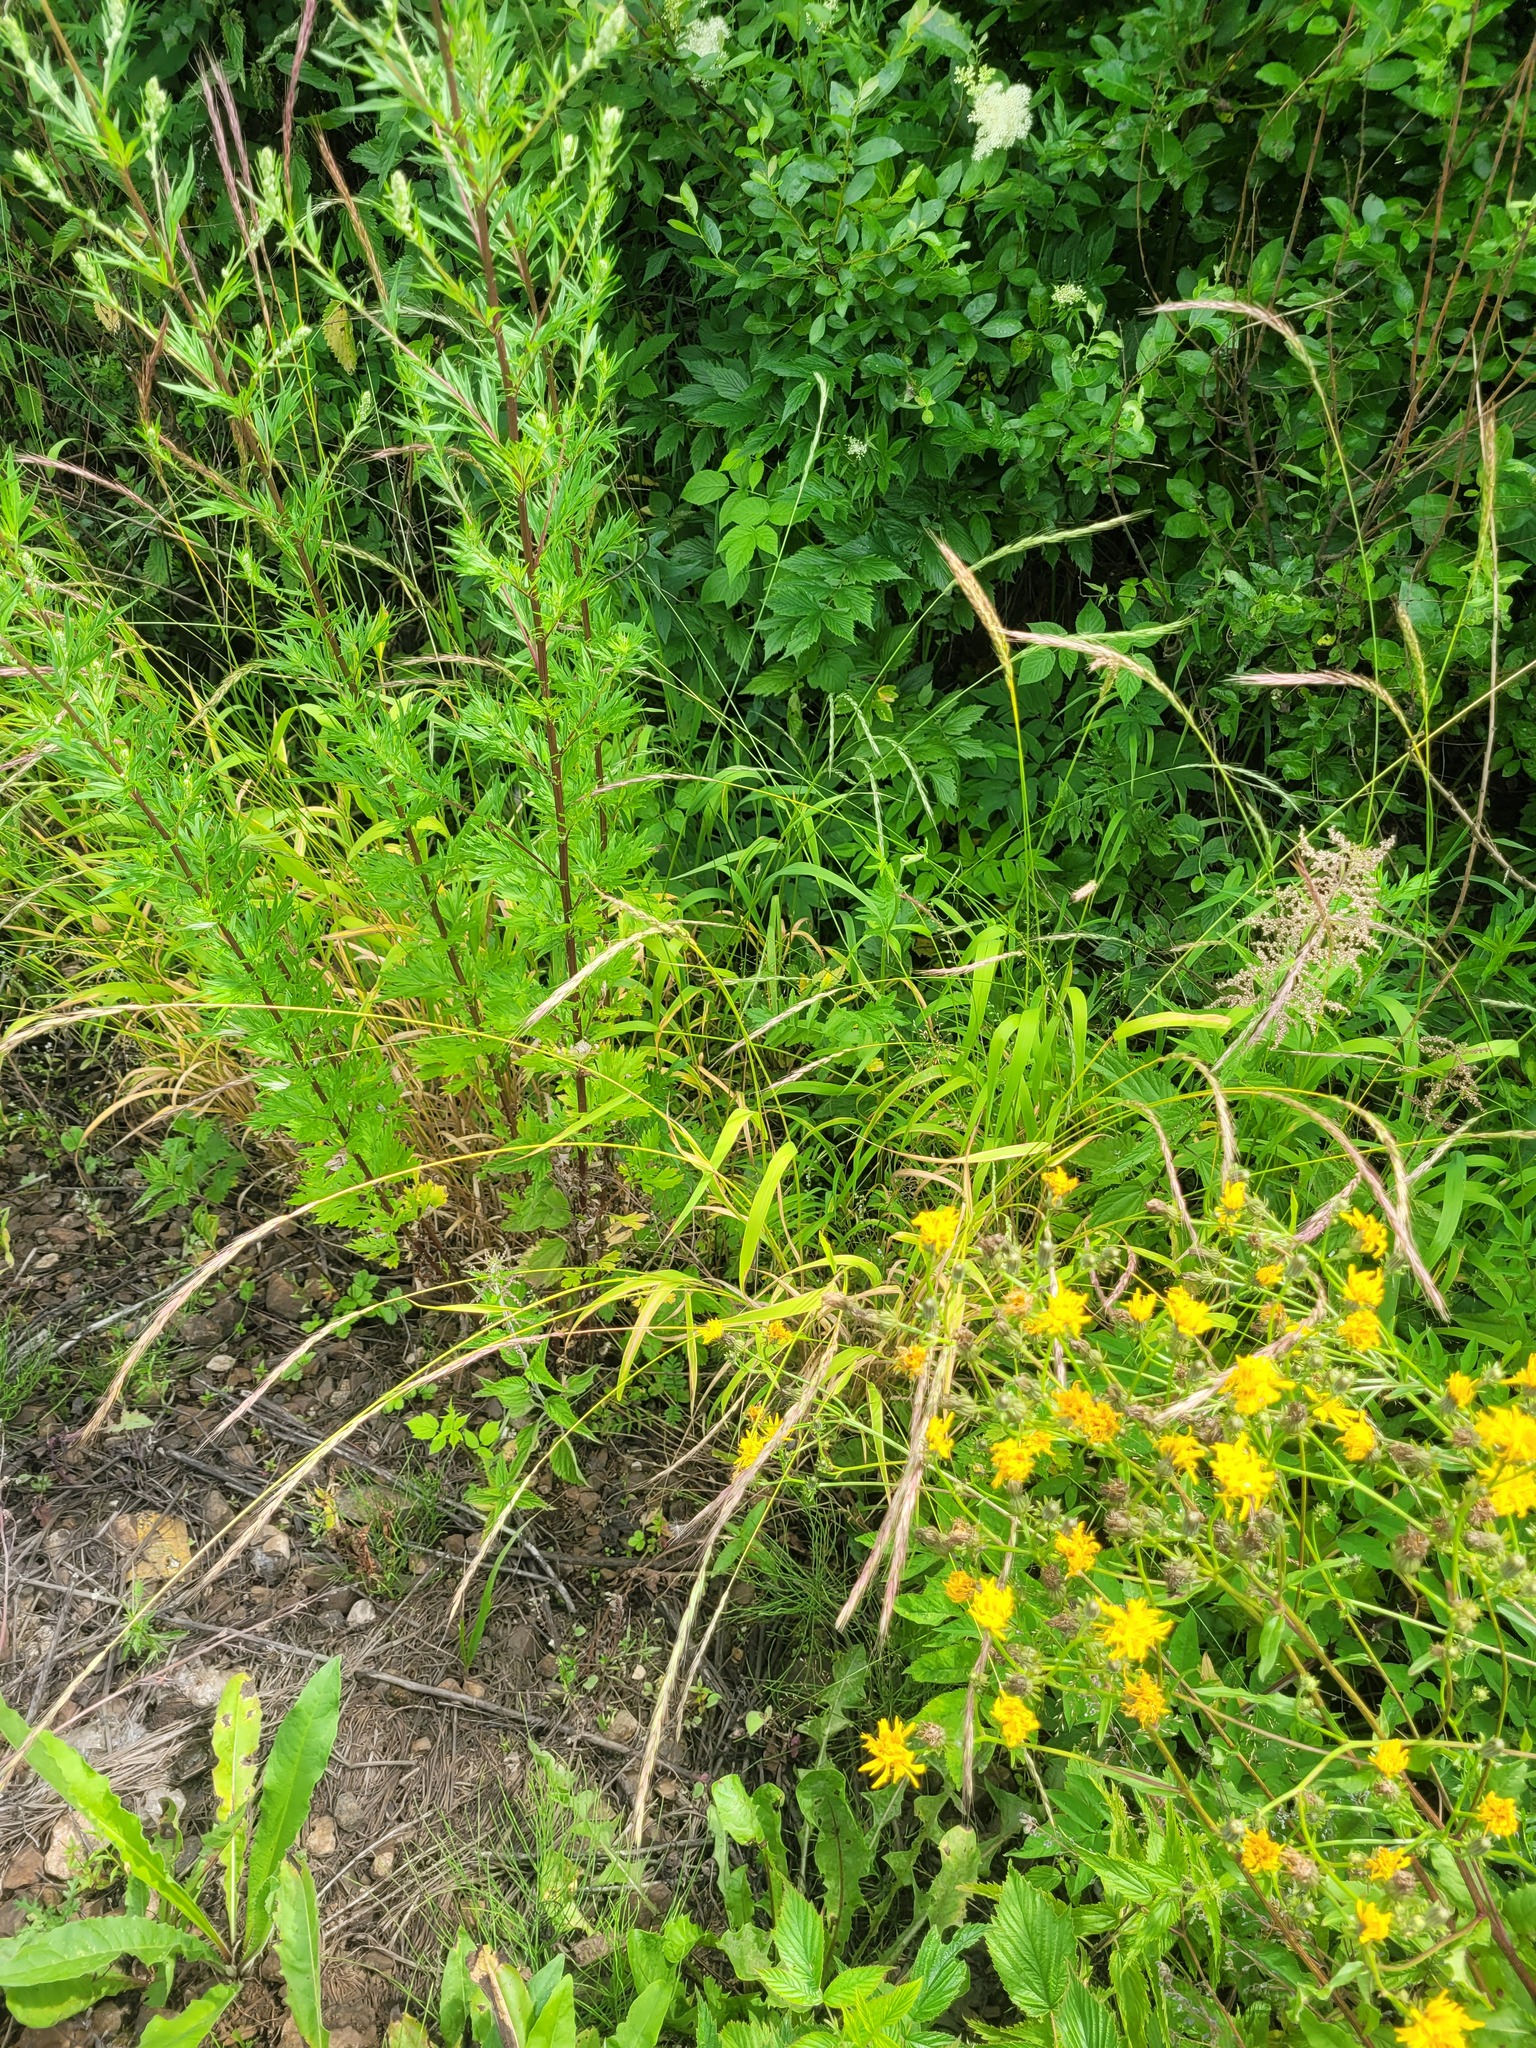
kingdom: Plantae
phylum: Tracheophyta
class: Liliopsida
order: Poales
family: Poaceae
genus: Elymus
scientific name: Elymus caninus
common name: Bearded couch
